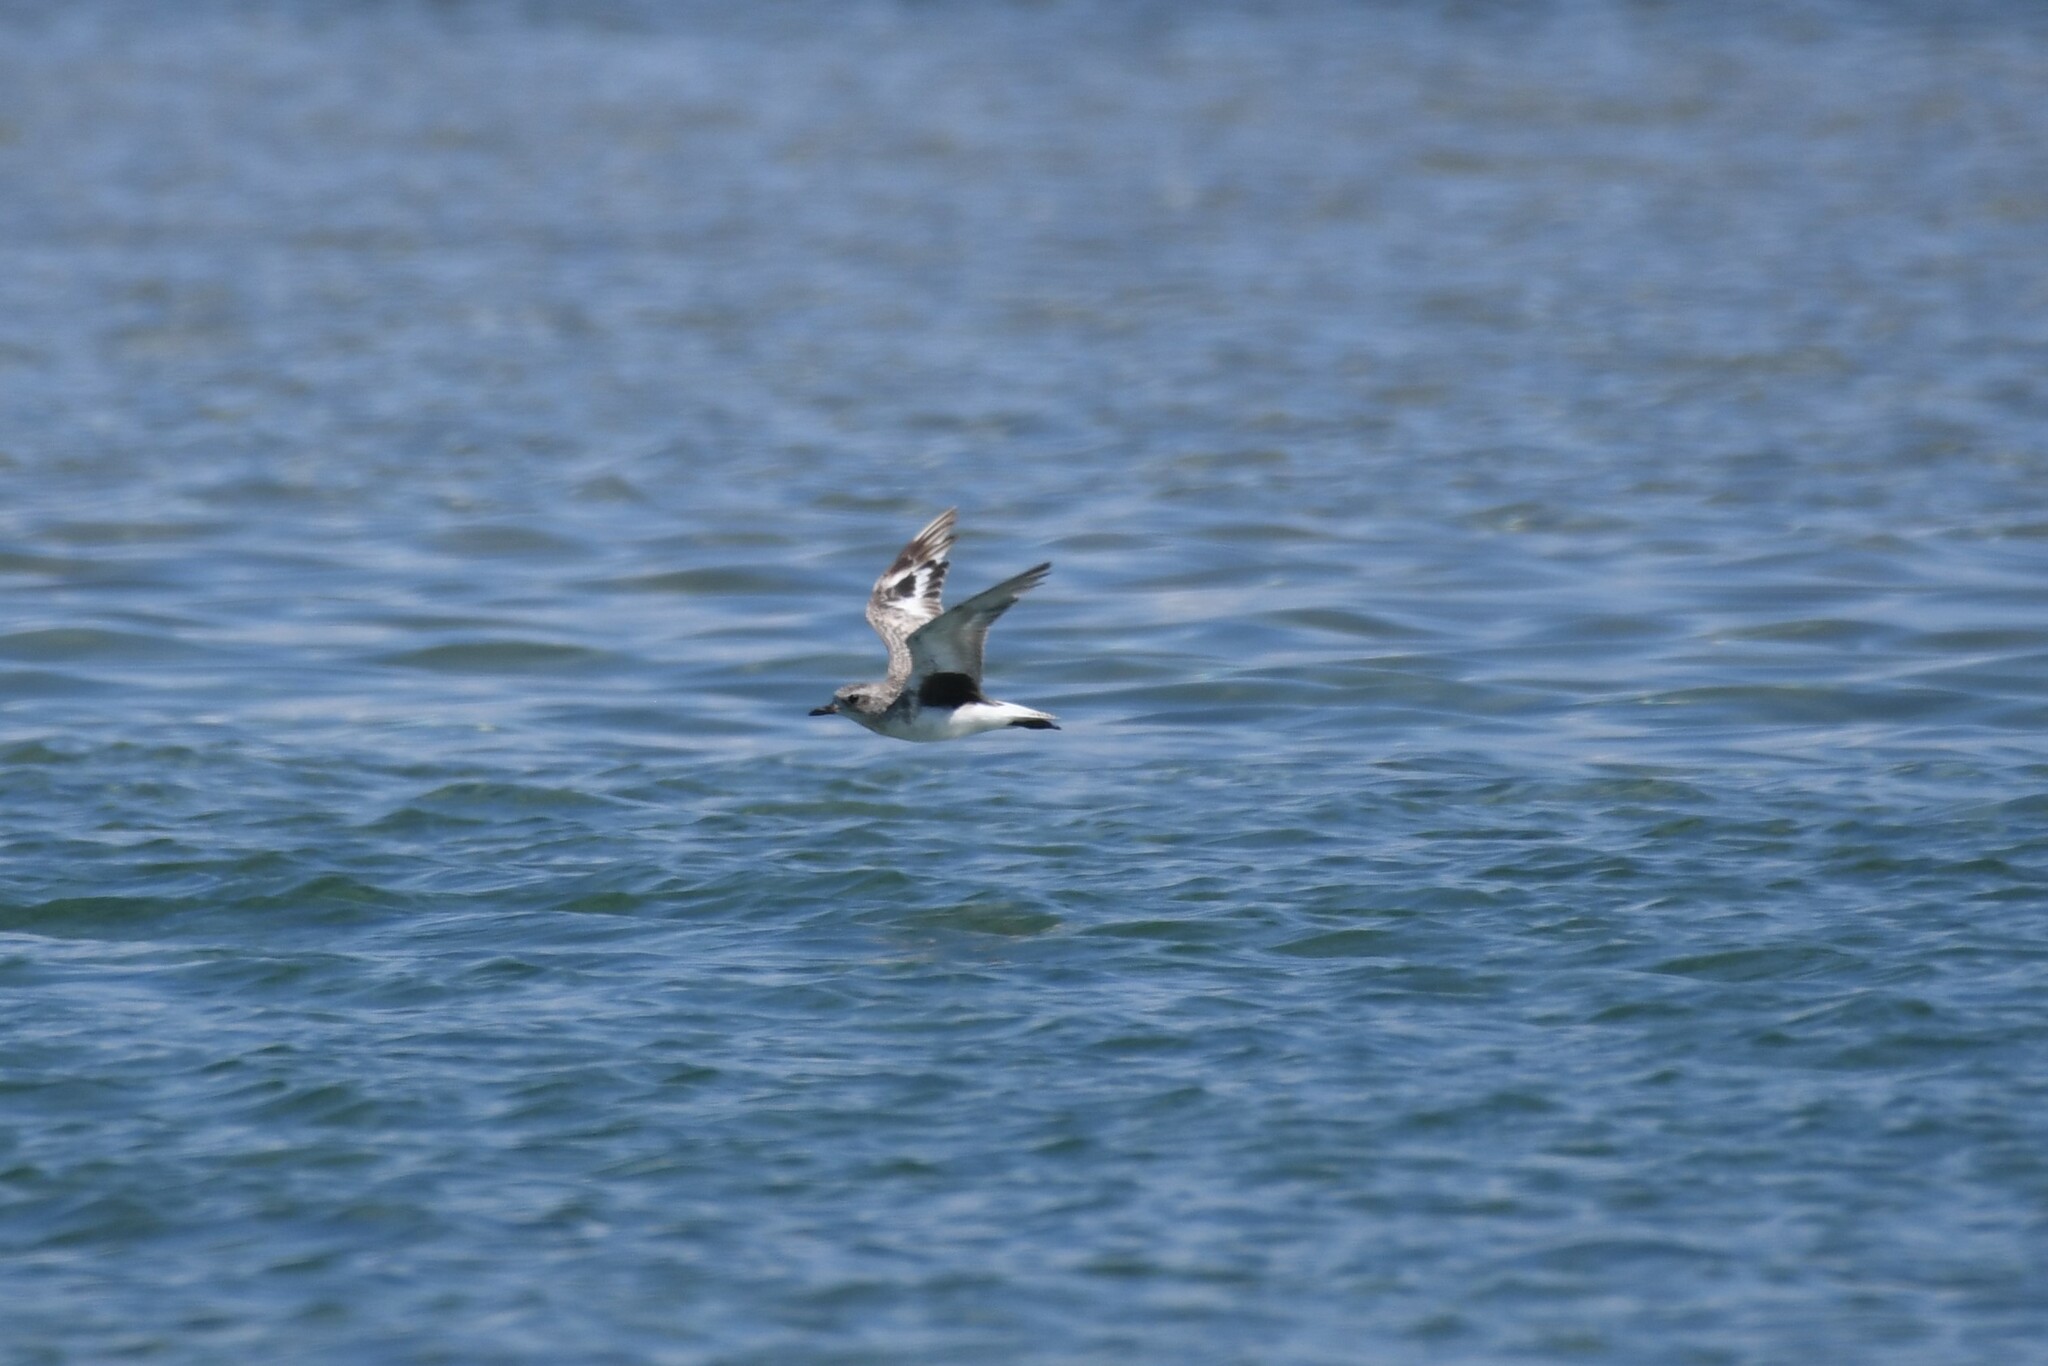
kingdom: Animalia
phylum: Chordata
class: Aves
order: Charadriiformes
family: Charadriidae
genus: Pluvialis
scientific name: Pluvialis squatarola
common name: Grey plover
